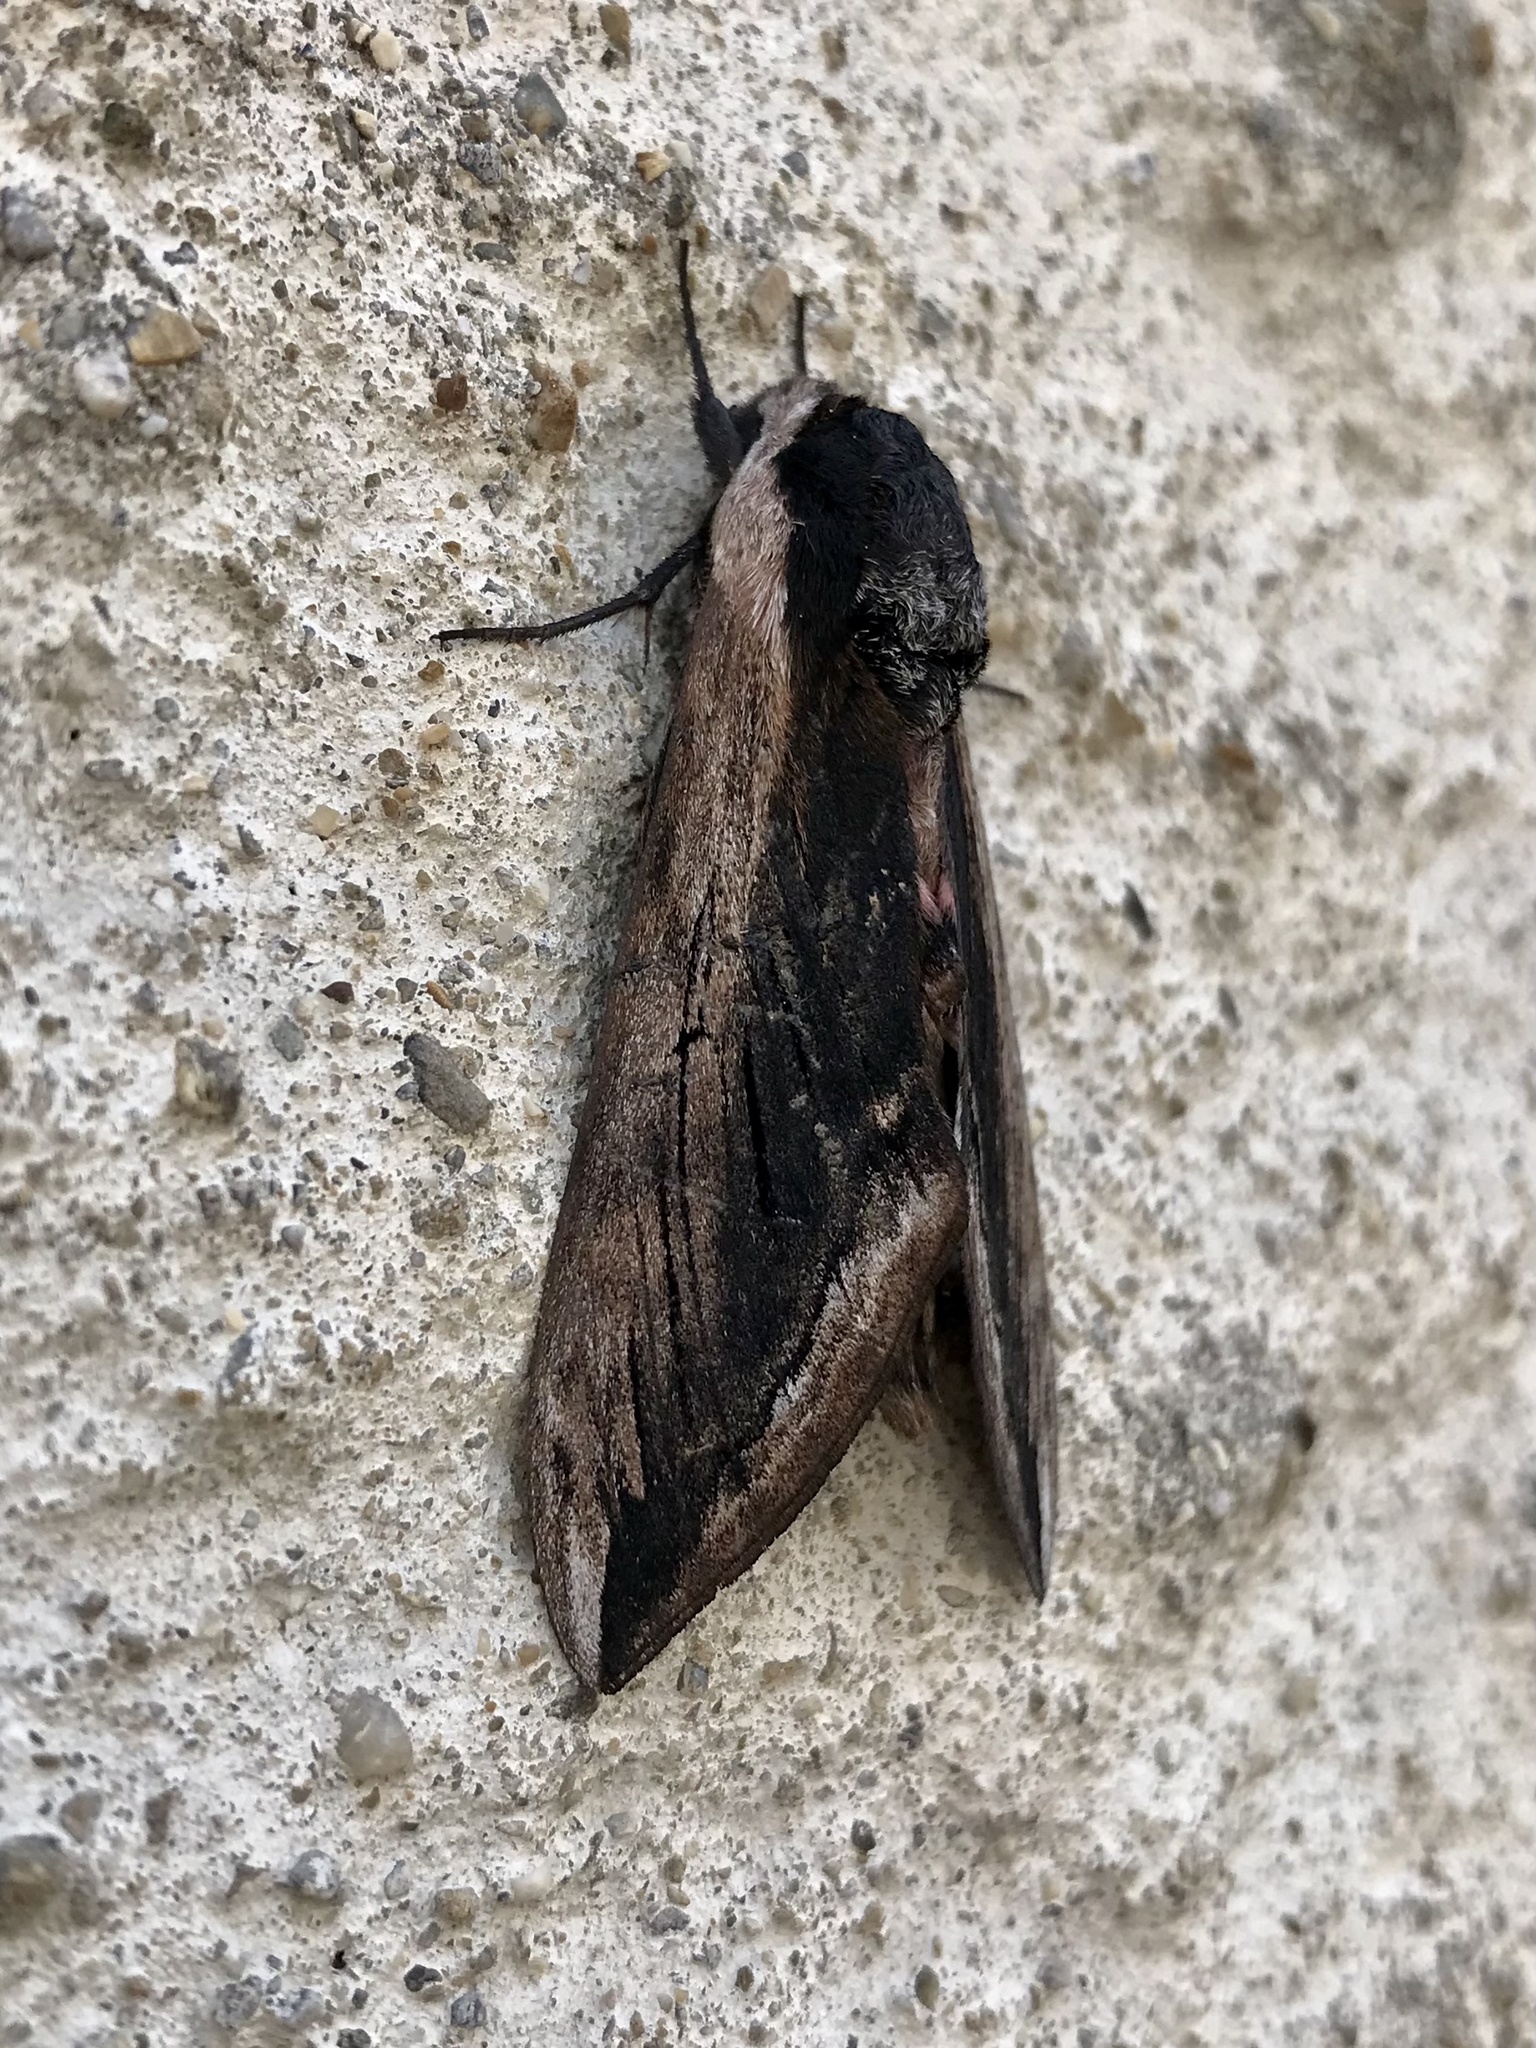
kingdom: Animalia
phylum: Arthropoda
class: Insecta
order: Lepidoptera
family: Sphingidae
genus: Sphinx
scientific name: Sphinx ligustri
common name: Privet hawk-moth
